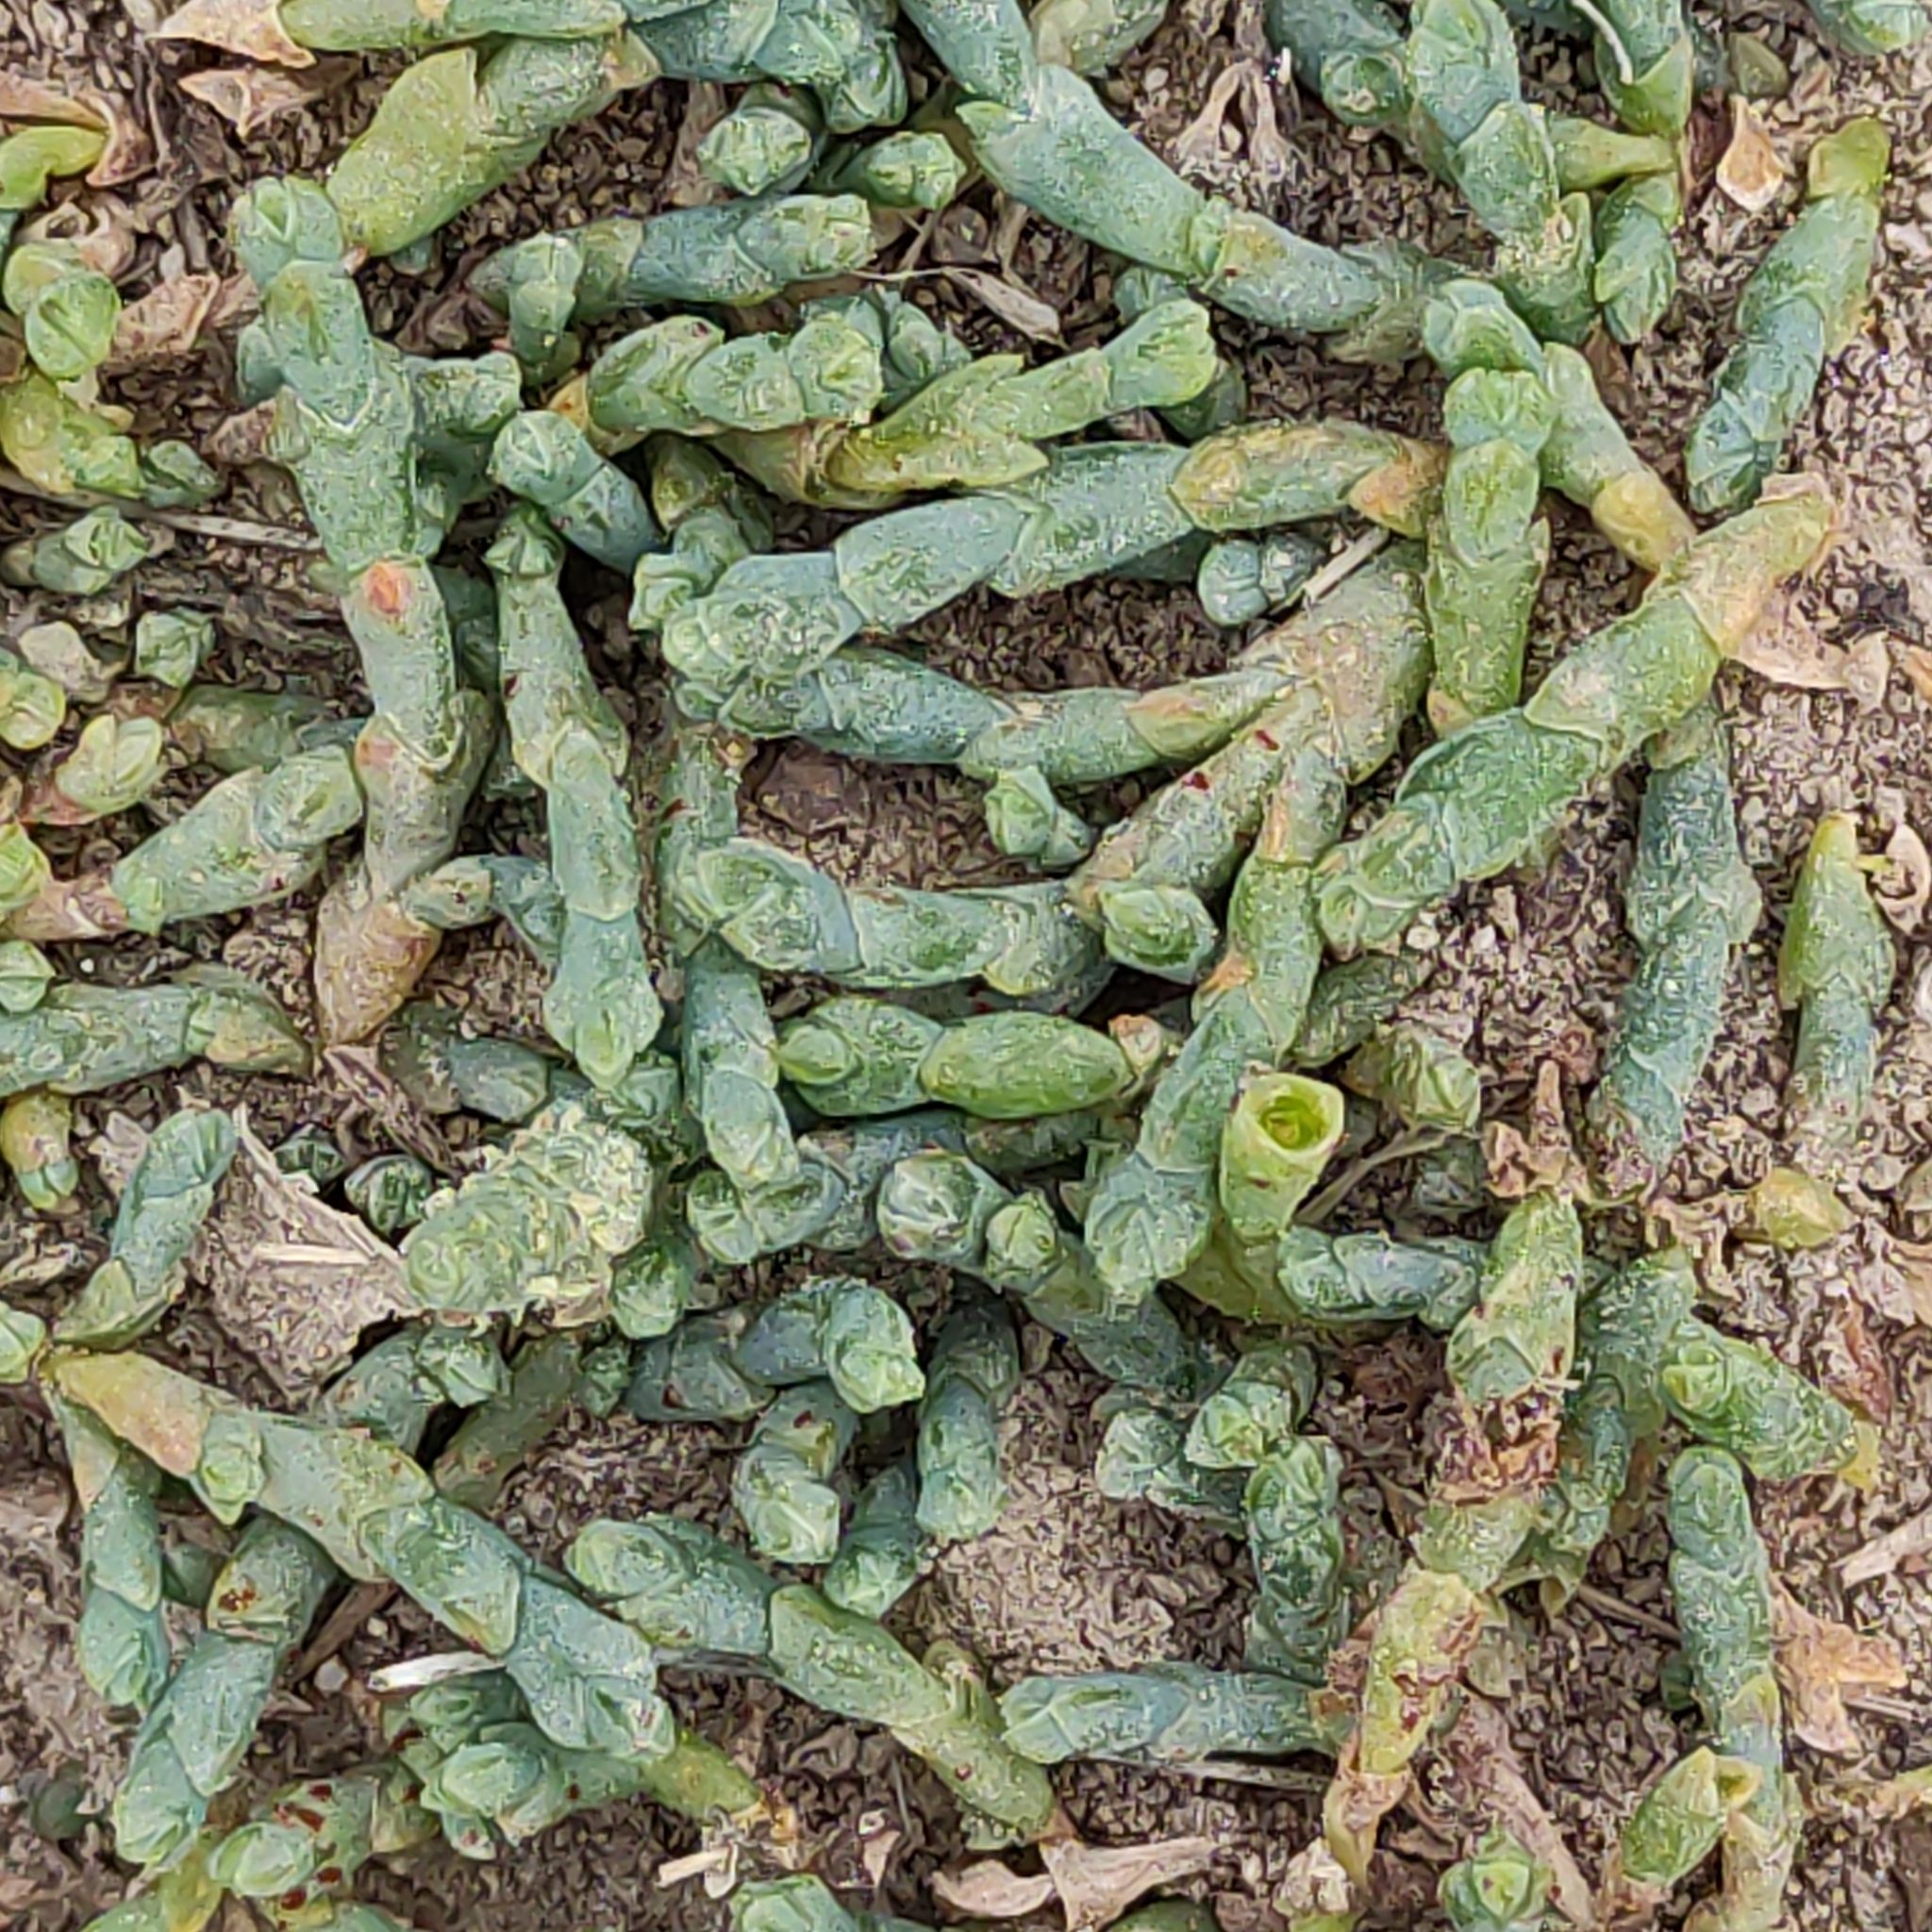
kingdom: Plantae
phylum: Tracheophyta
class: Magnoliopsida
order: Caryophyllales
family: Amaranthaceae
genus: Salicornia
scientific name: Salicornia quinqueflora
